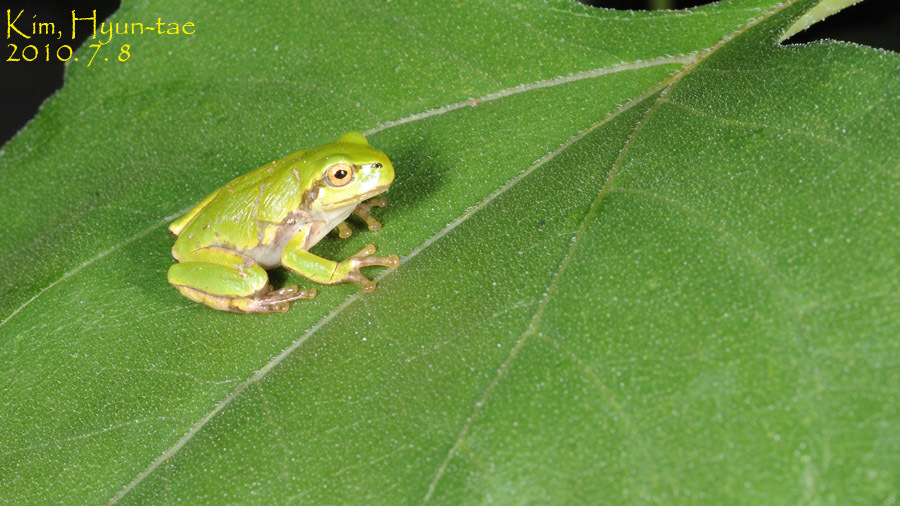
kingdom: Animalia
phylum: Chordata
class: Amphibia
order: Anura
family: Hylidae
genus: Dryophytes
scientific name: Dryophytes japonicus
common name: Japanese treefrog
